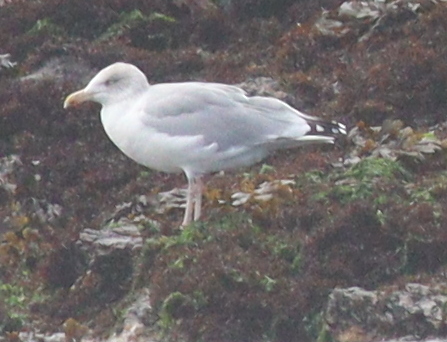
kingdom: Animalia
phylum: Chordata
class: Aves
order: Charadriiformes
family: Laridae
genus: Larus
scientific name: Larus argentatus
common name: Herring gull
